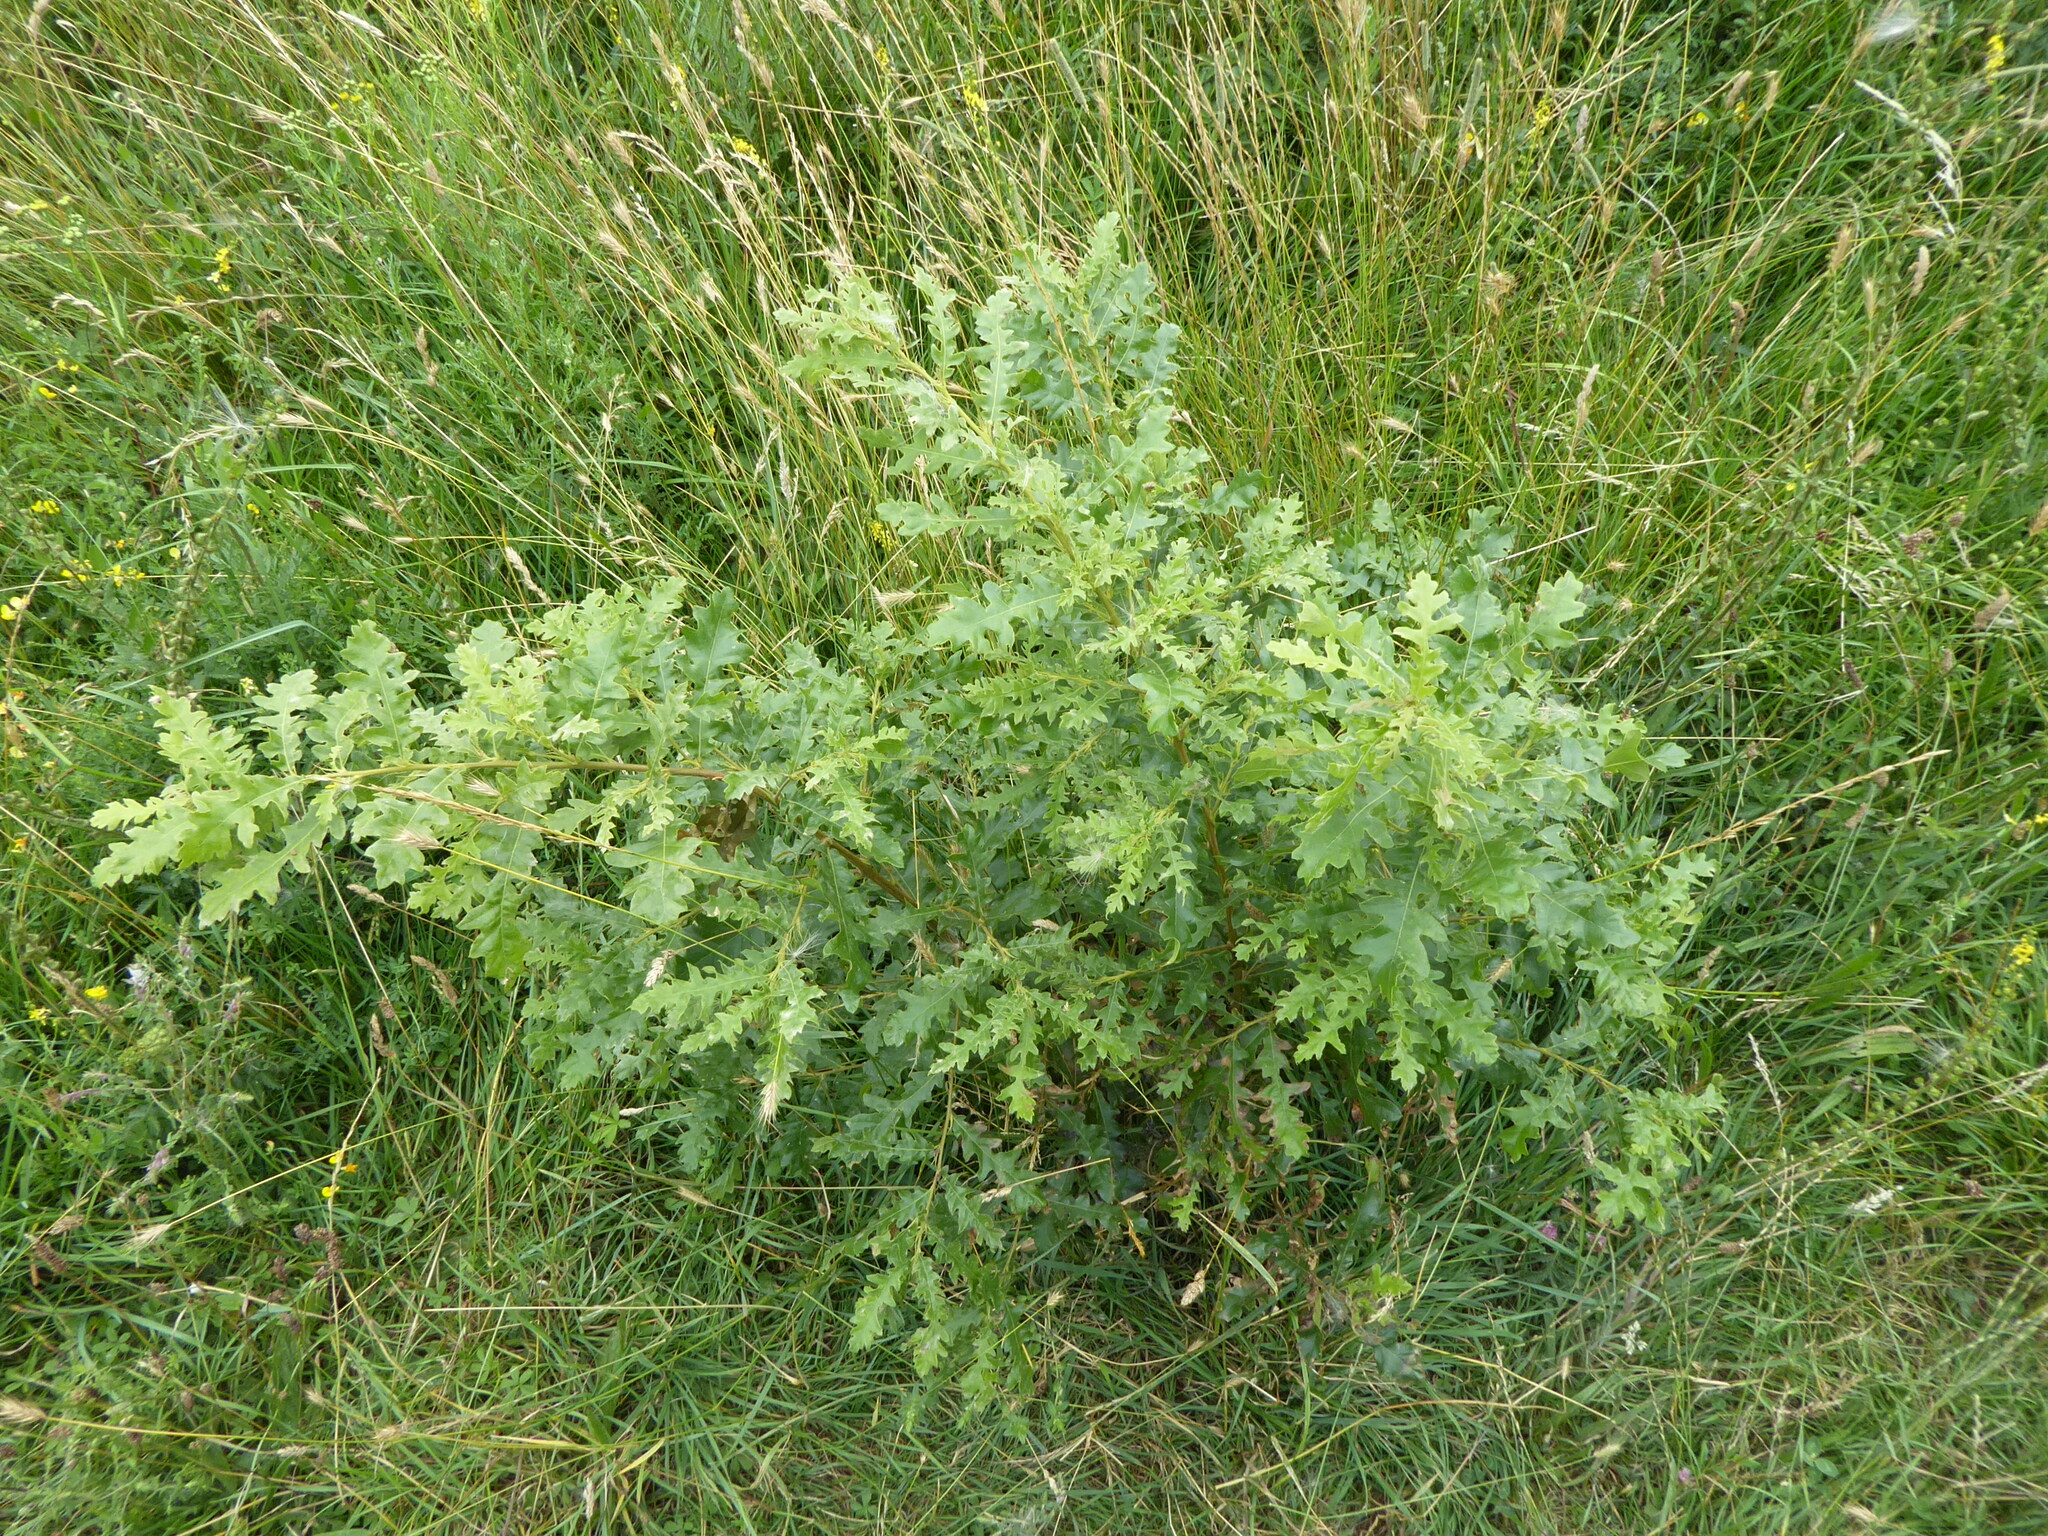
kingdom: Plantae
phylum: Tracheophyta
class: Magnoliopsida
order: Fagales
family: Fagaceae
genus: Quercus
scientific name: Quercus cerris
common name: Turkey oak
